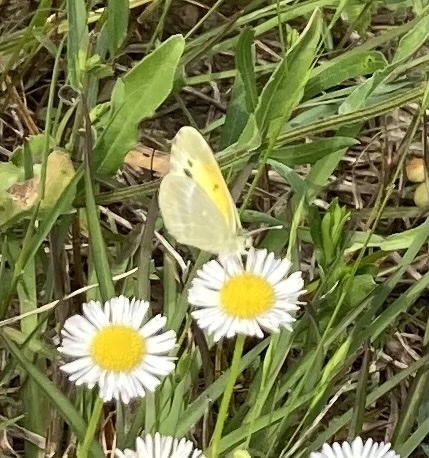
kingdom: Animalia
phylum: Arthropoda
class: Insecta
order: Lepidoptera
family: Pieridae
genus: Nathalis
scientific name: Nathalis iole
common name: Dainty sulphur
